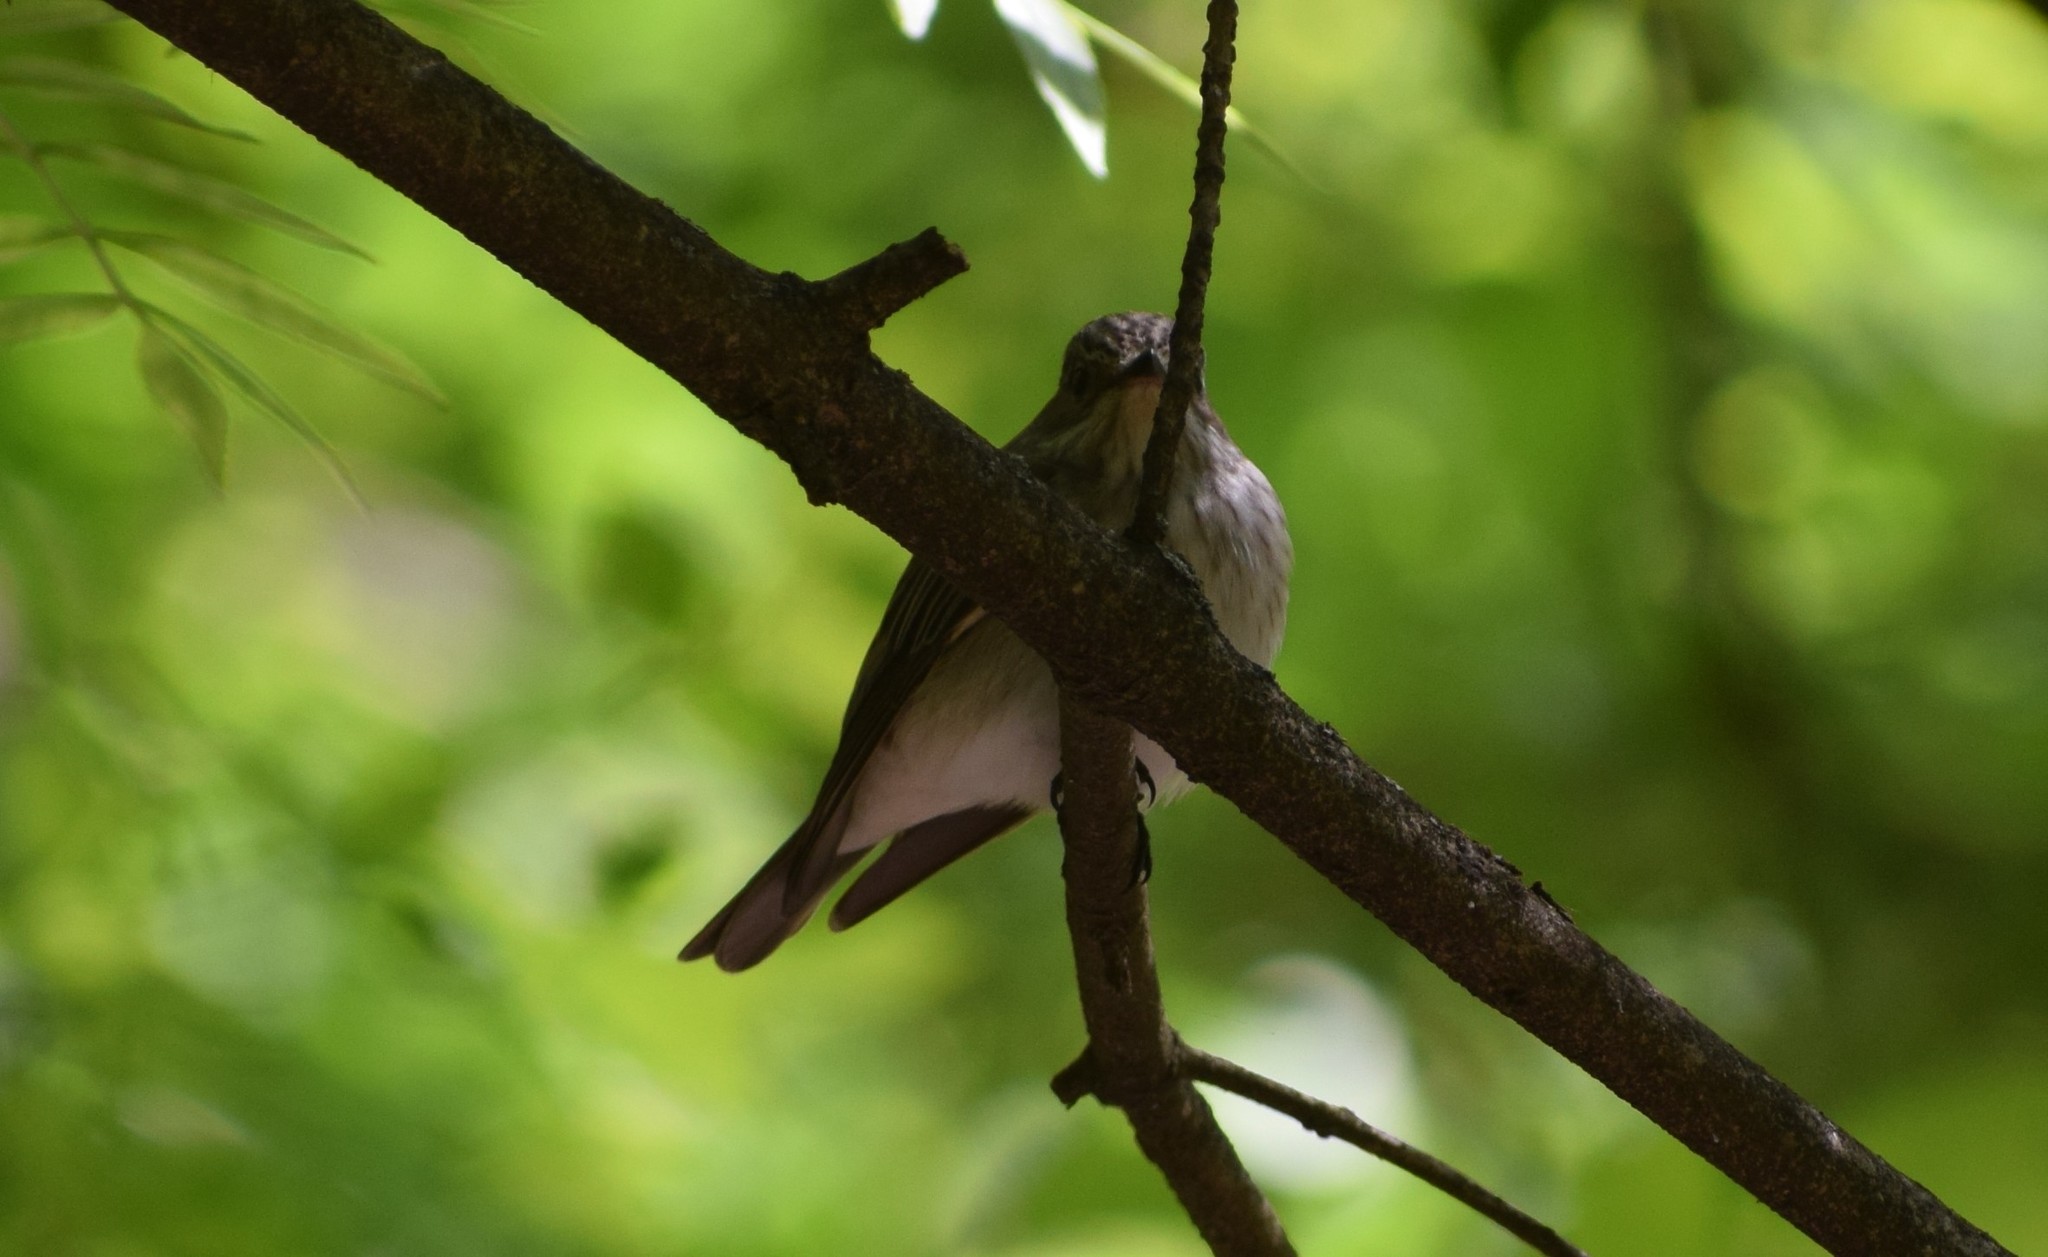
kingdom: Animalia
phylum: Chordata
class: Aves
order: Passeriformes
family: Muscicapidae
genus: Muscicapa
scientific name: Muscicapa striata
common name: Spotted flycatcher
